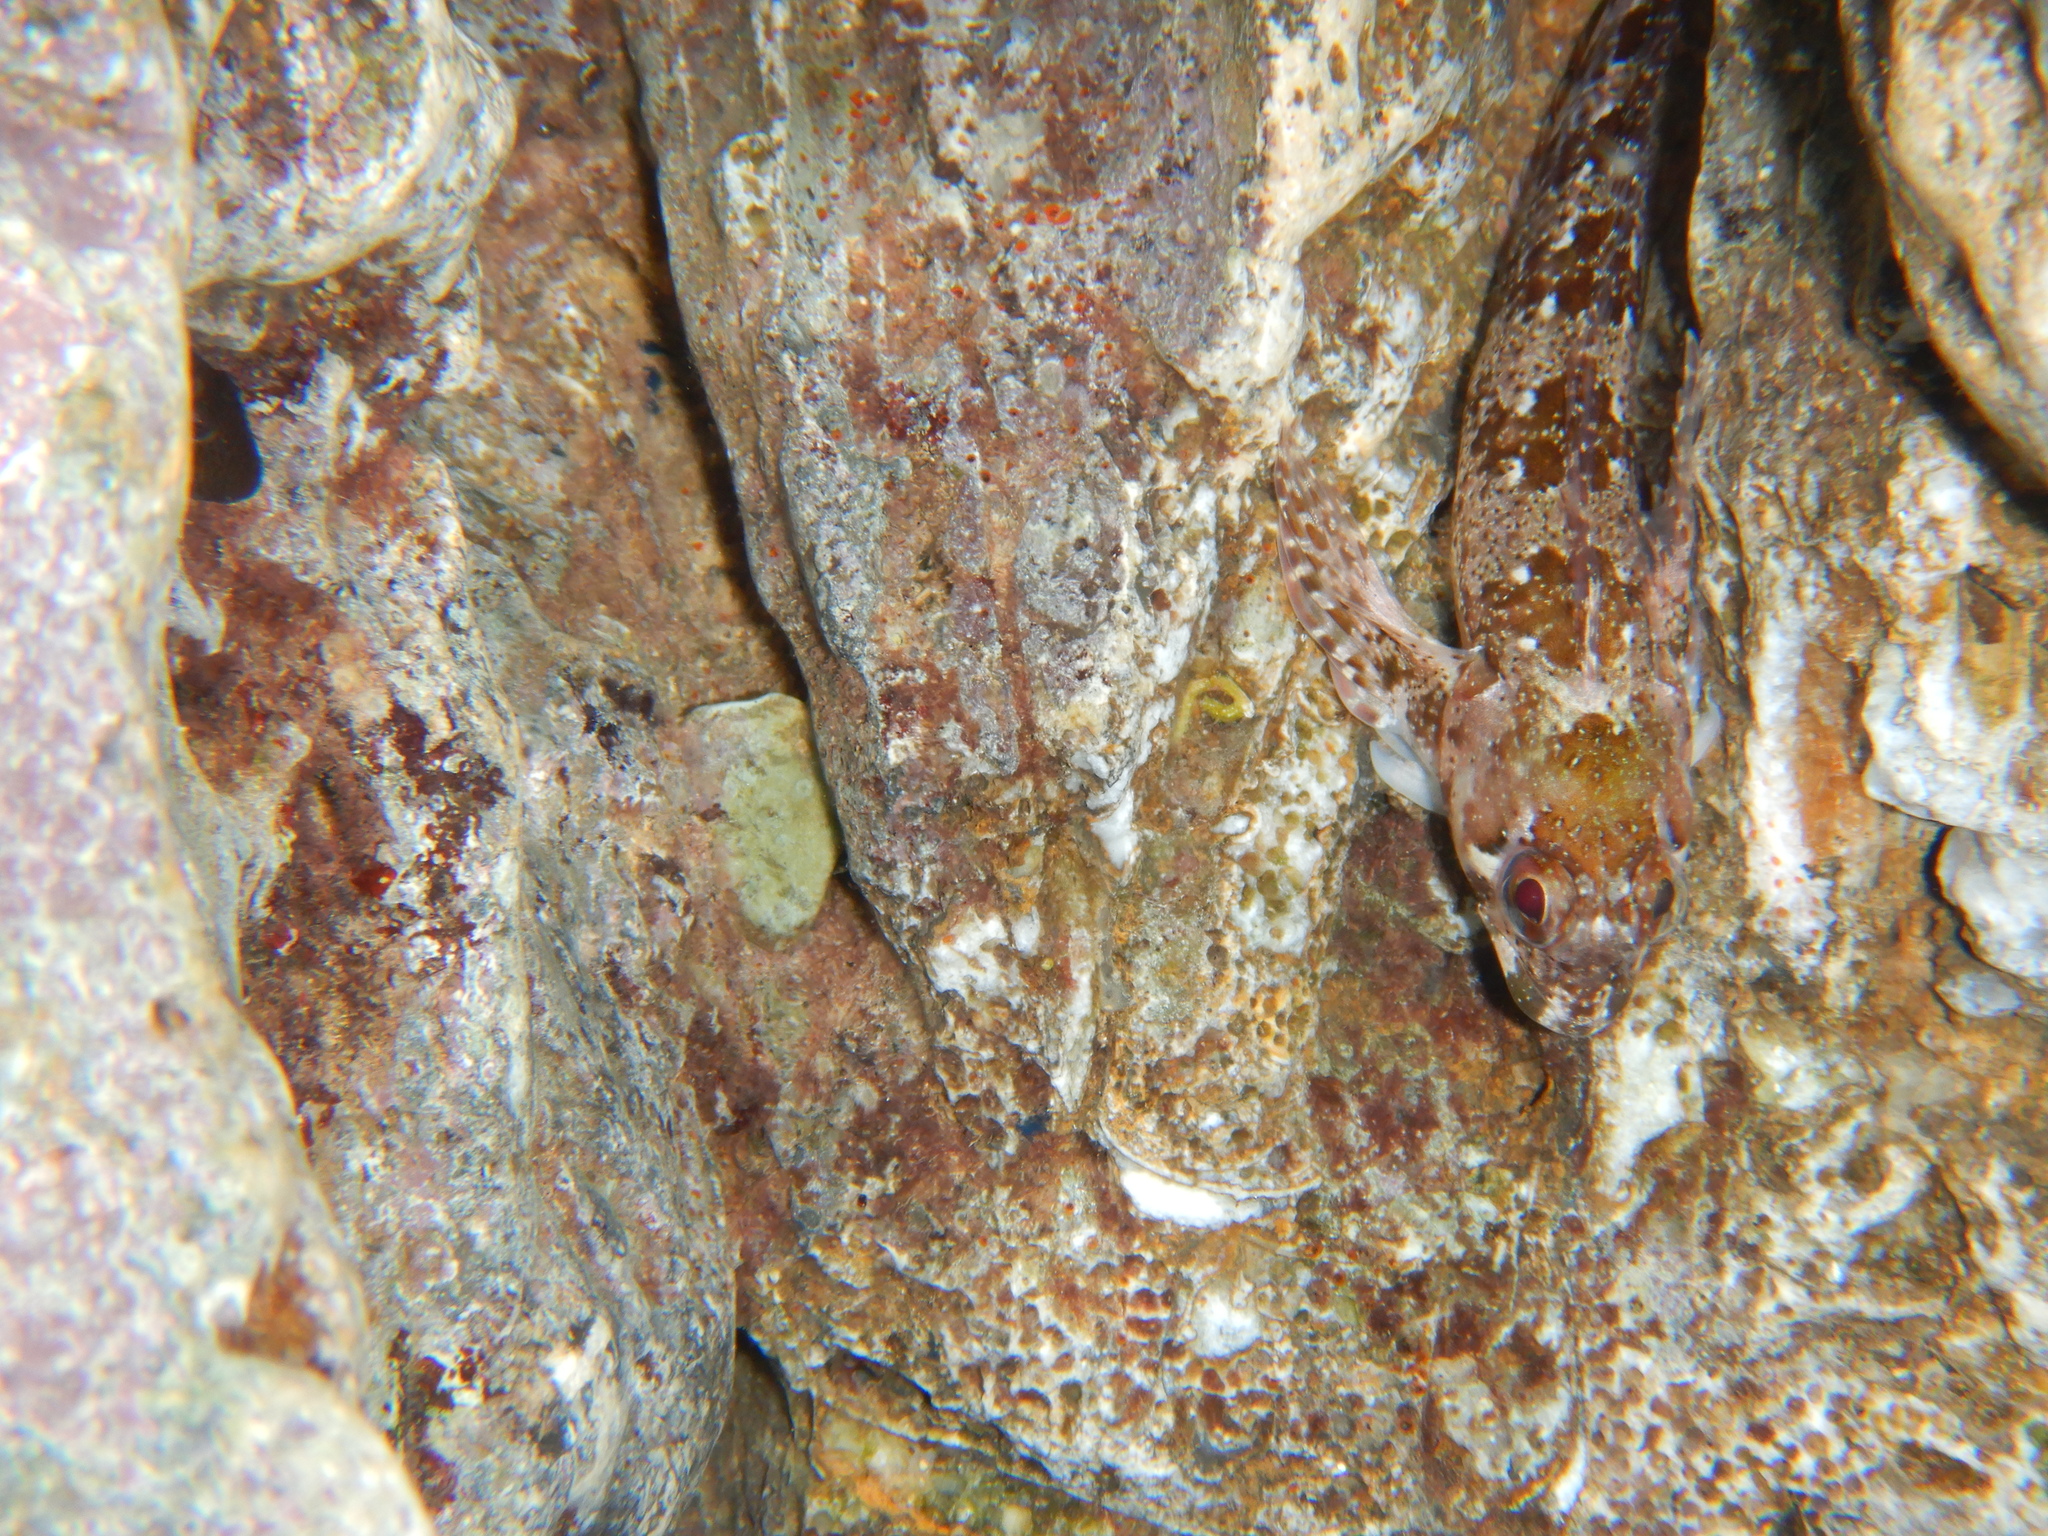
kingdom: Animalia
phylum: Chordata
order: Perciformes
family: Blenniidae
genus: Lipophrys
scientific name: Lipophrys trigloides
